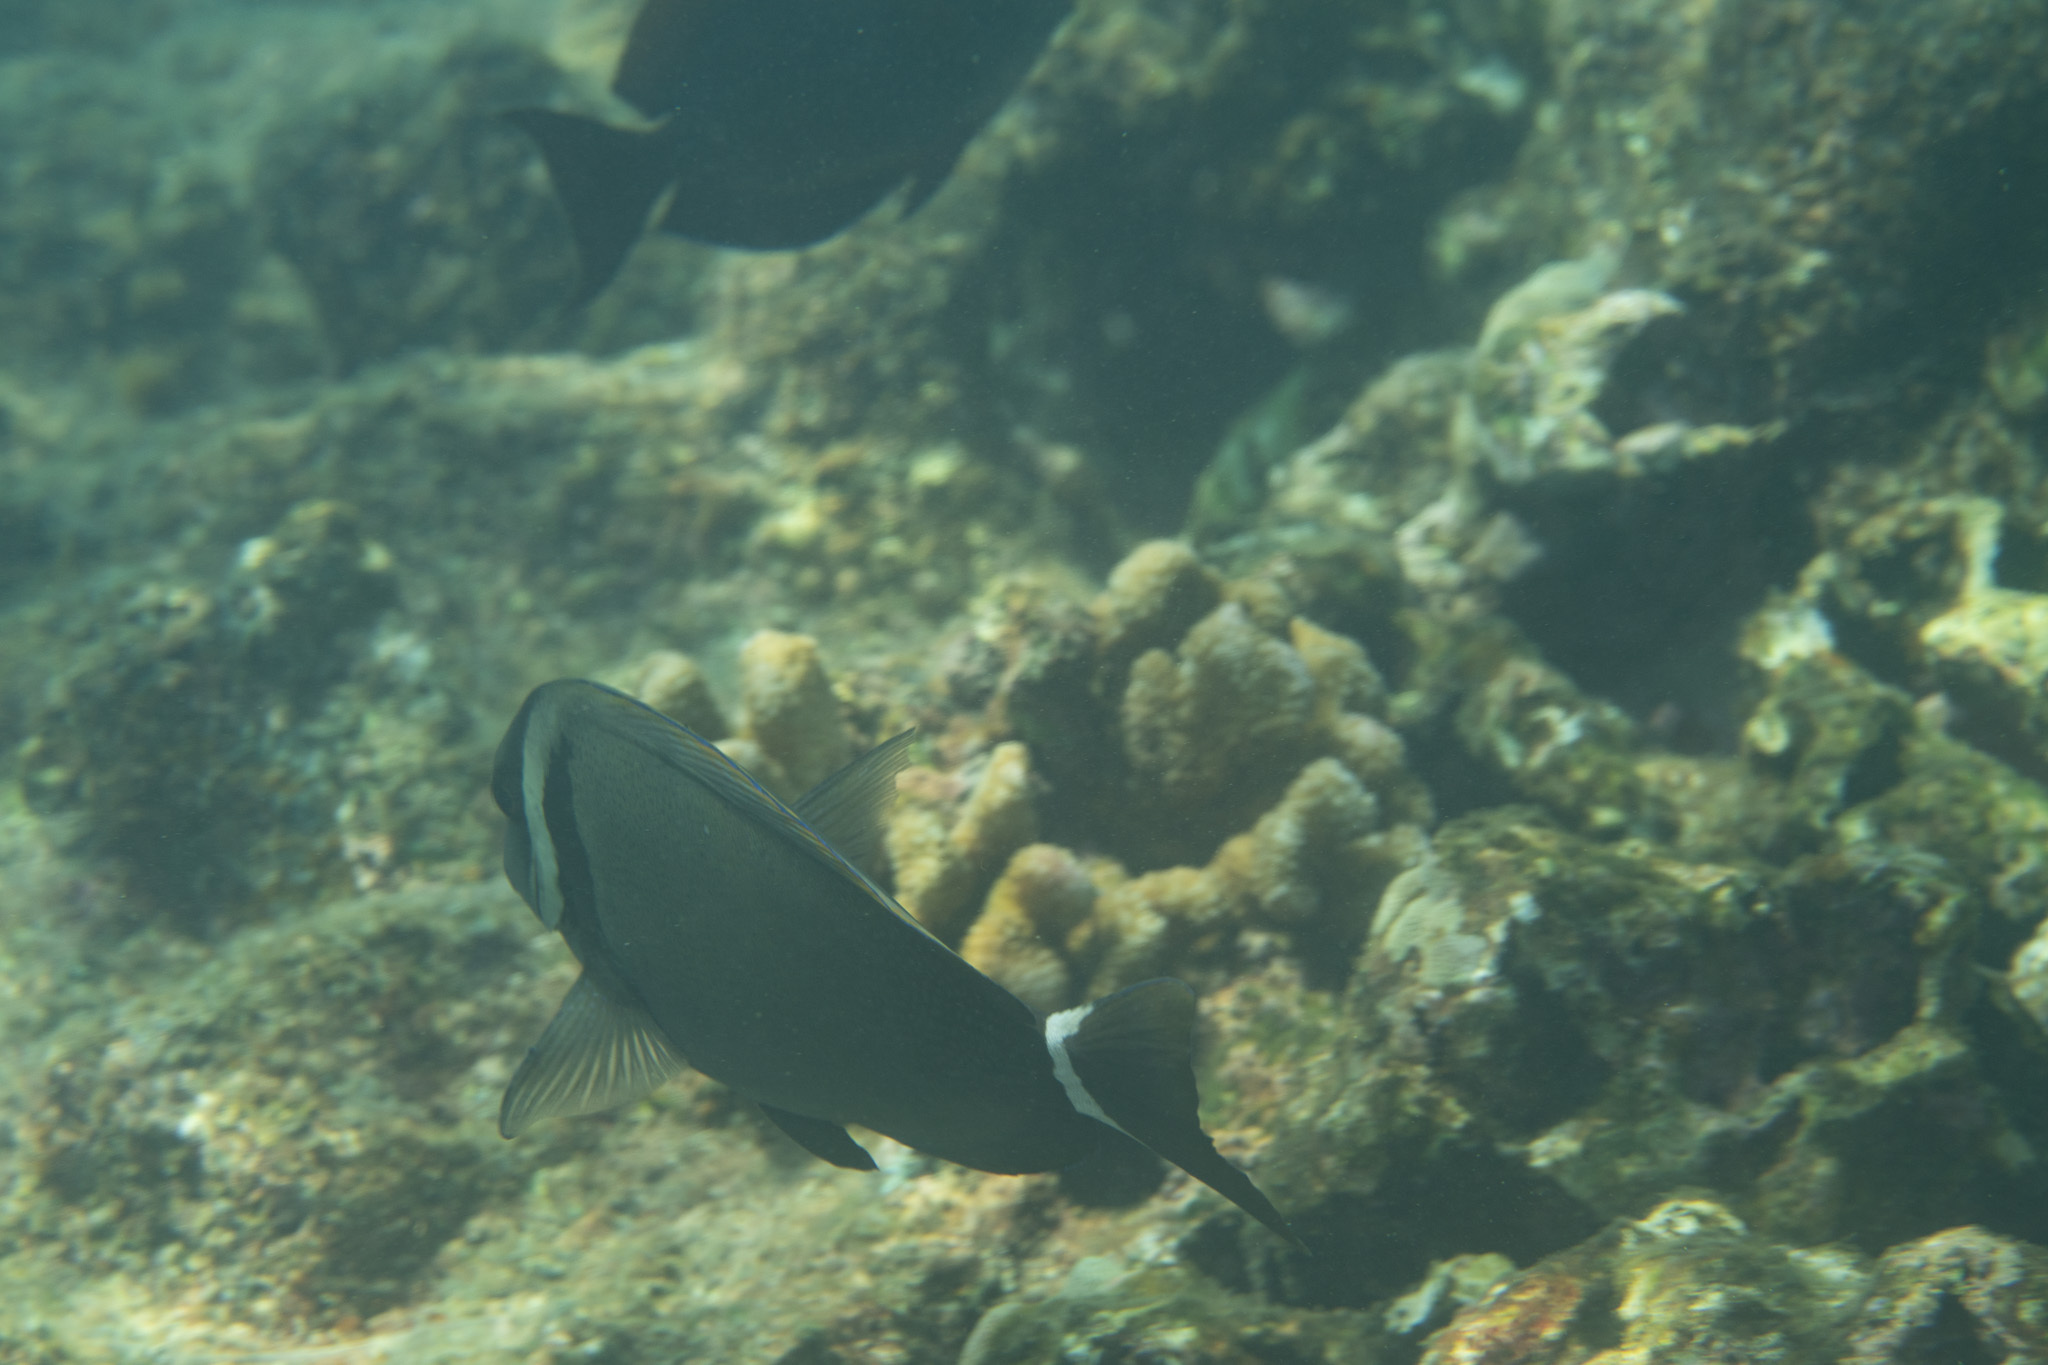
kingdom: Animalia
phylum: Chordata
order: Perciformes
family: Acanthuridae
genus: Acanthurus
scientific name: Acanthurus leucopareius
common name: Head-band surgeonfish
